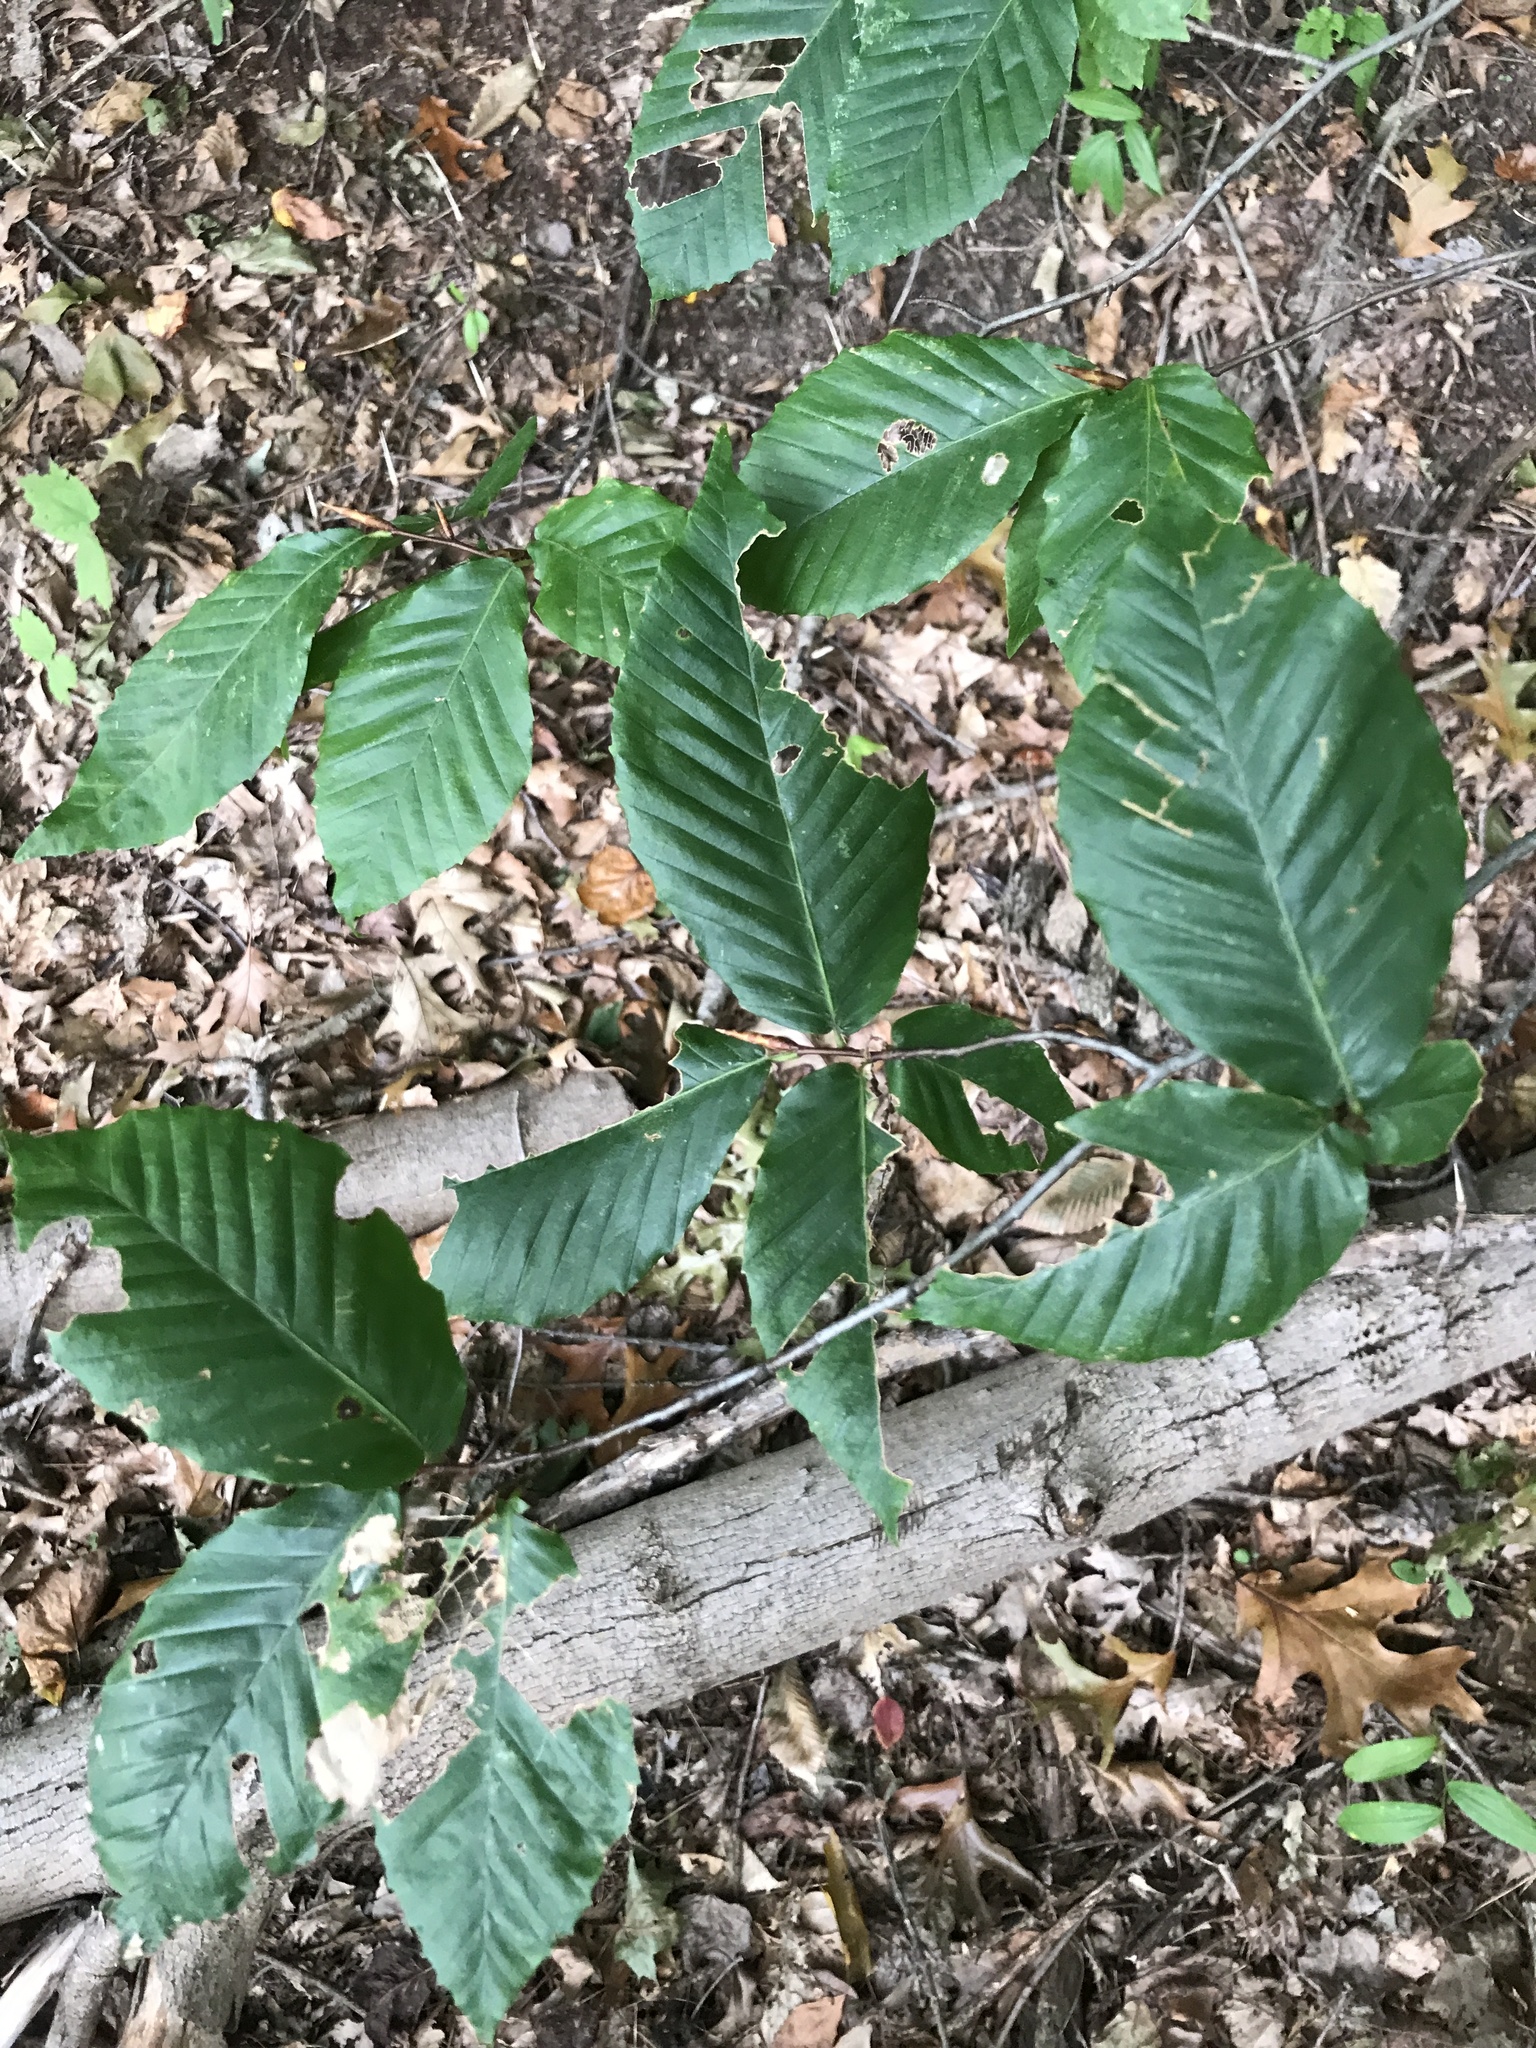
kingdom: Plantae
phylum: Tracheophyta
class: Magnoliopsida
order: Fagales
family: Fagaceae
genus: Fagus
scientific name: Fagus grandifolia
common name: American beech
